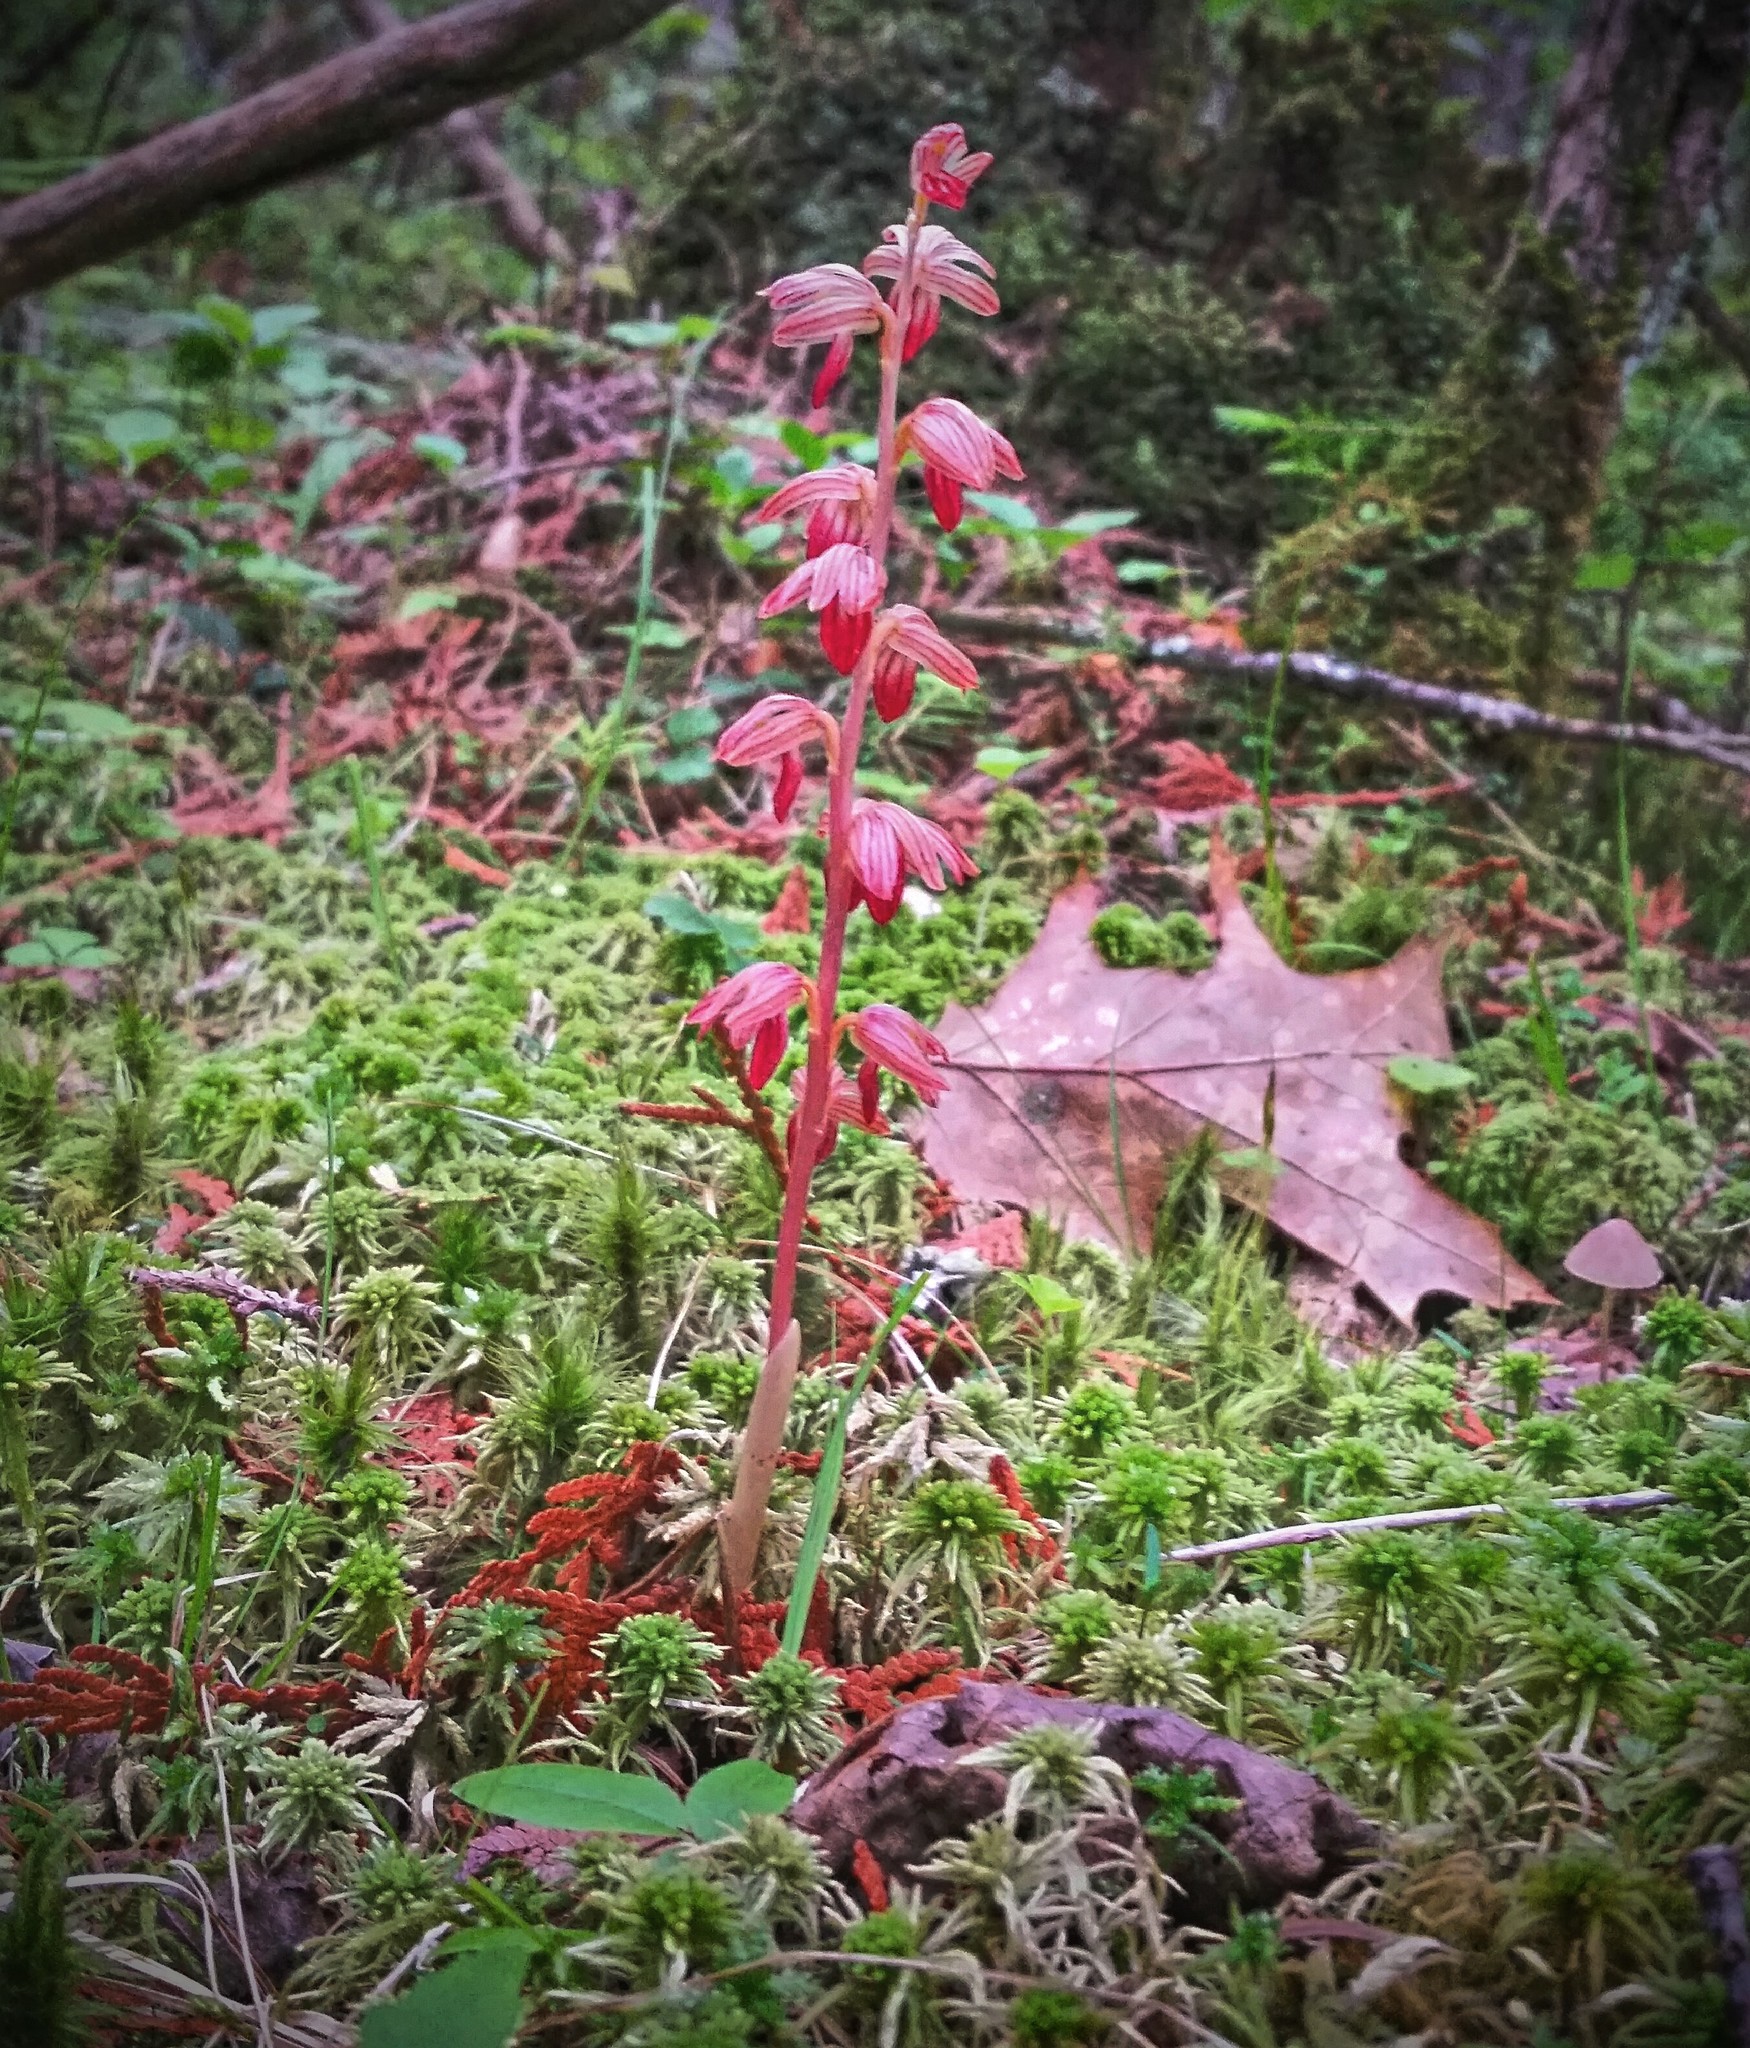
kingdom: Plantae
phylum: Tracheophyta
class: Liliopsida
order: Asparagales
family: Orchidaceae
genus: Corallorhiza
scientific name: Corallorhiza striata
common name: Hooded coralroot
